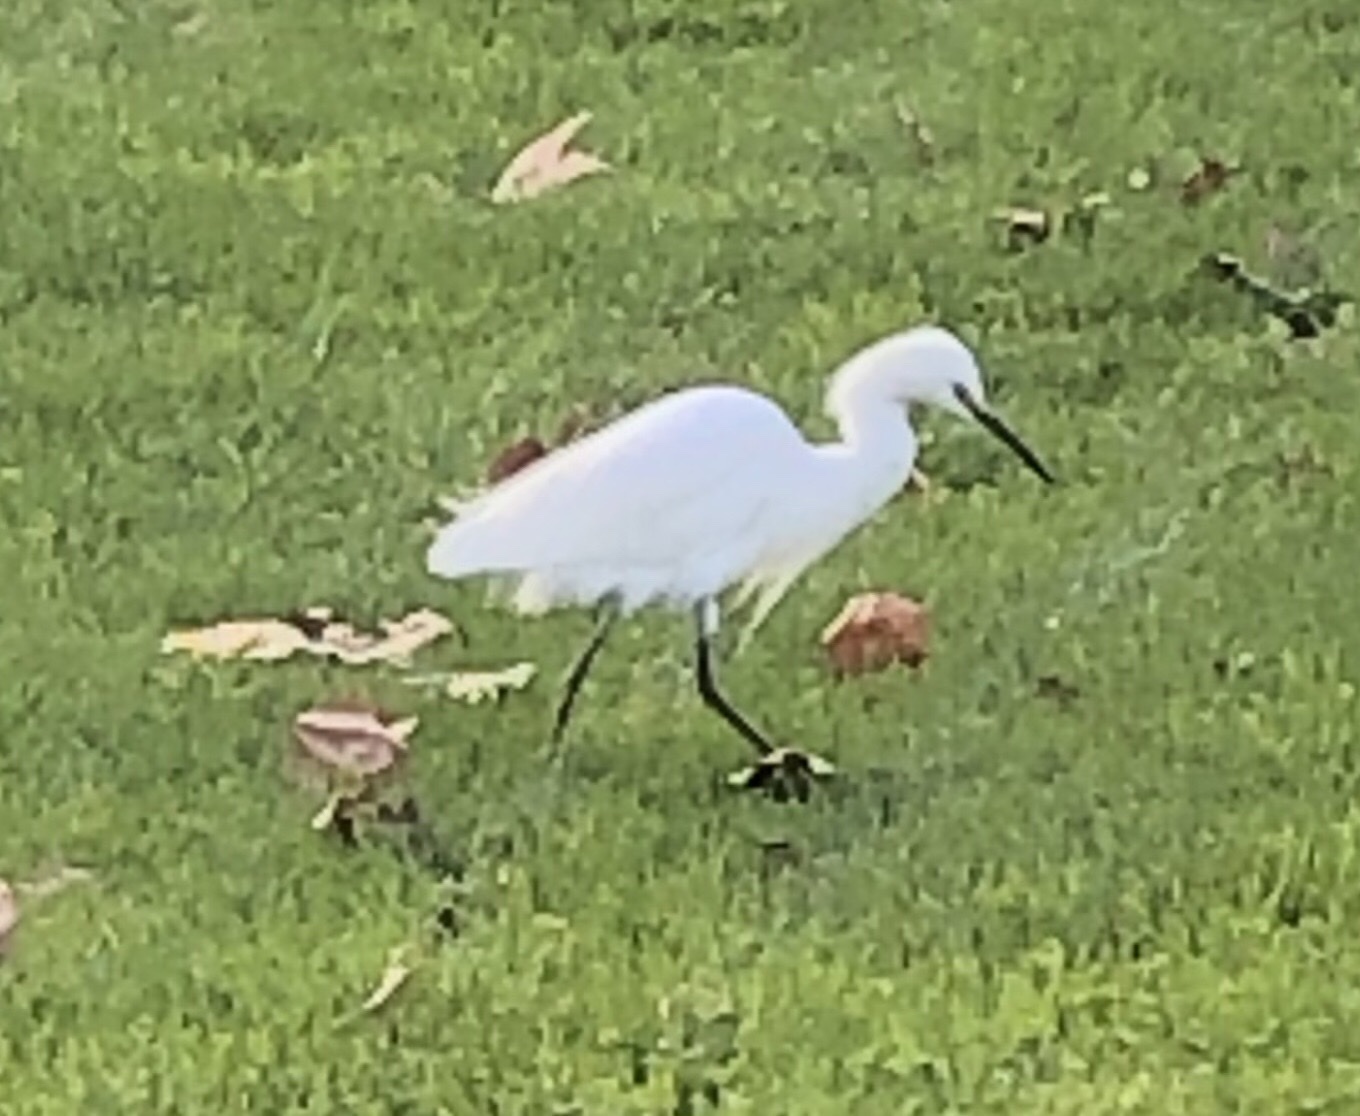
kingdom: Animalia
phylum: Chordata
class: Aves
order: Pelecaniformes
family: Ardeidae
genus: Egretta
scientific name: Egretta thula
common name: Snowy egret
